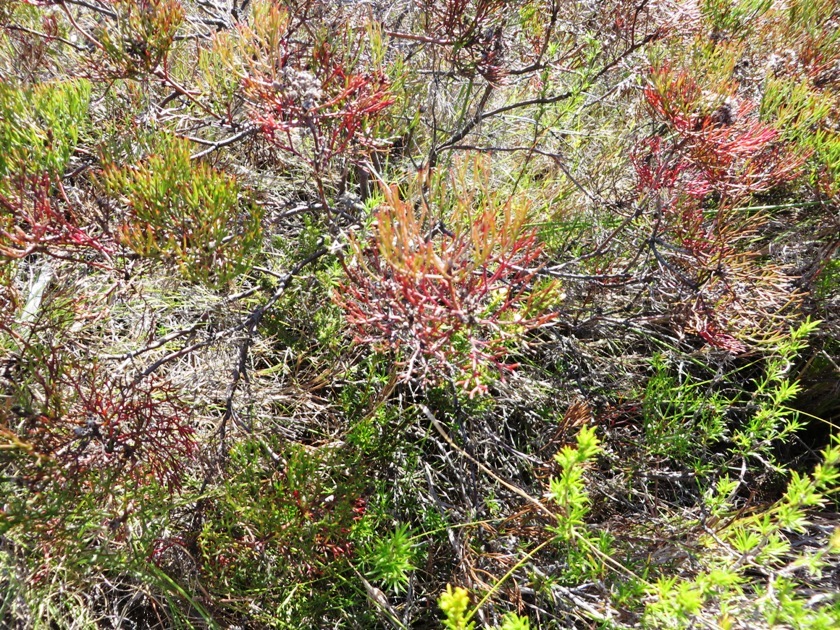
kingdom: Plantae
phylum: Tracheophyta
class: Magnoliopsida
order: Proteales
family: Proteaceae
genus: Serruria
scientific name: Serruria fasciflora
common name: Common pin spiderhead
